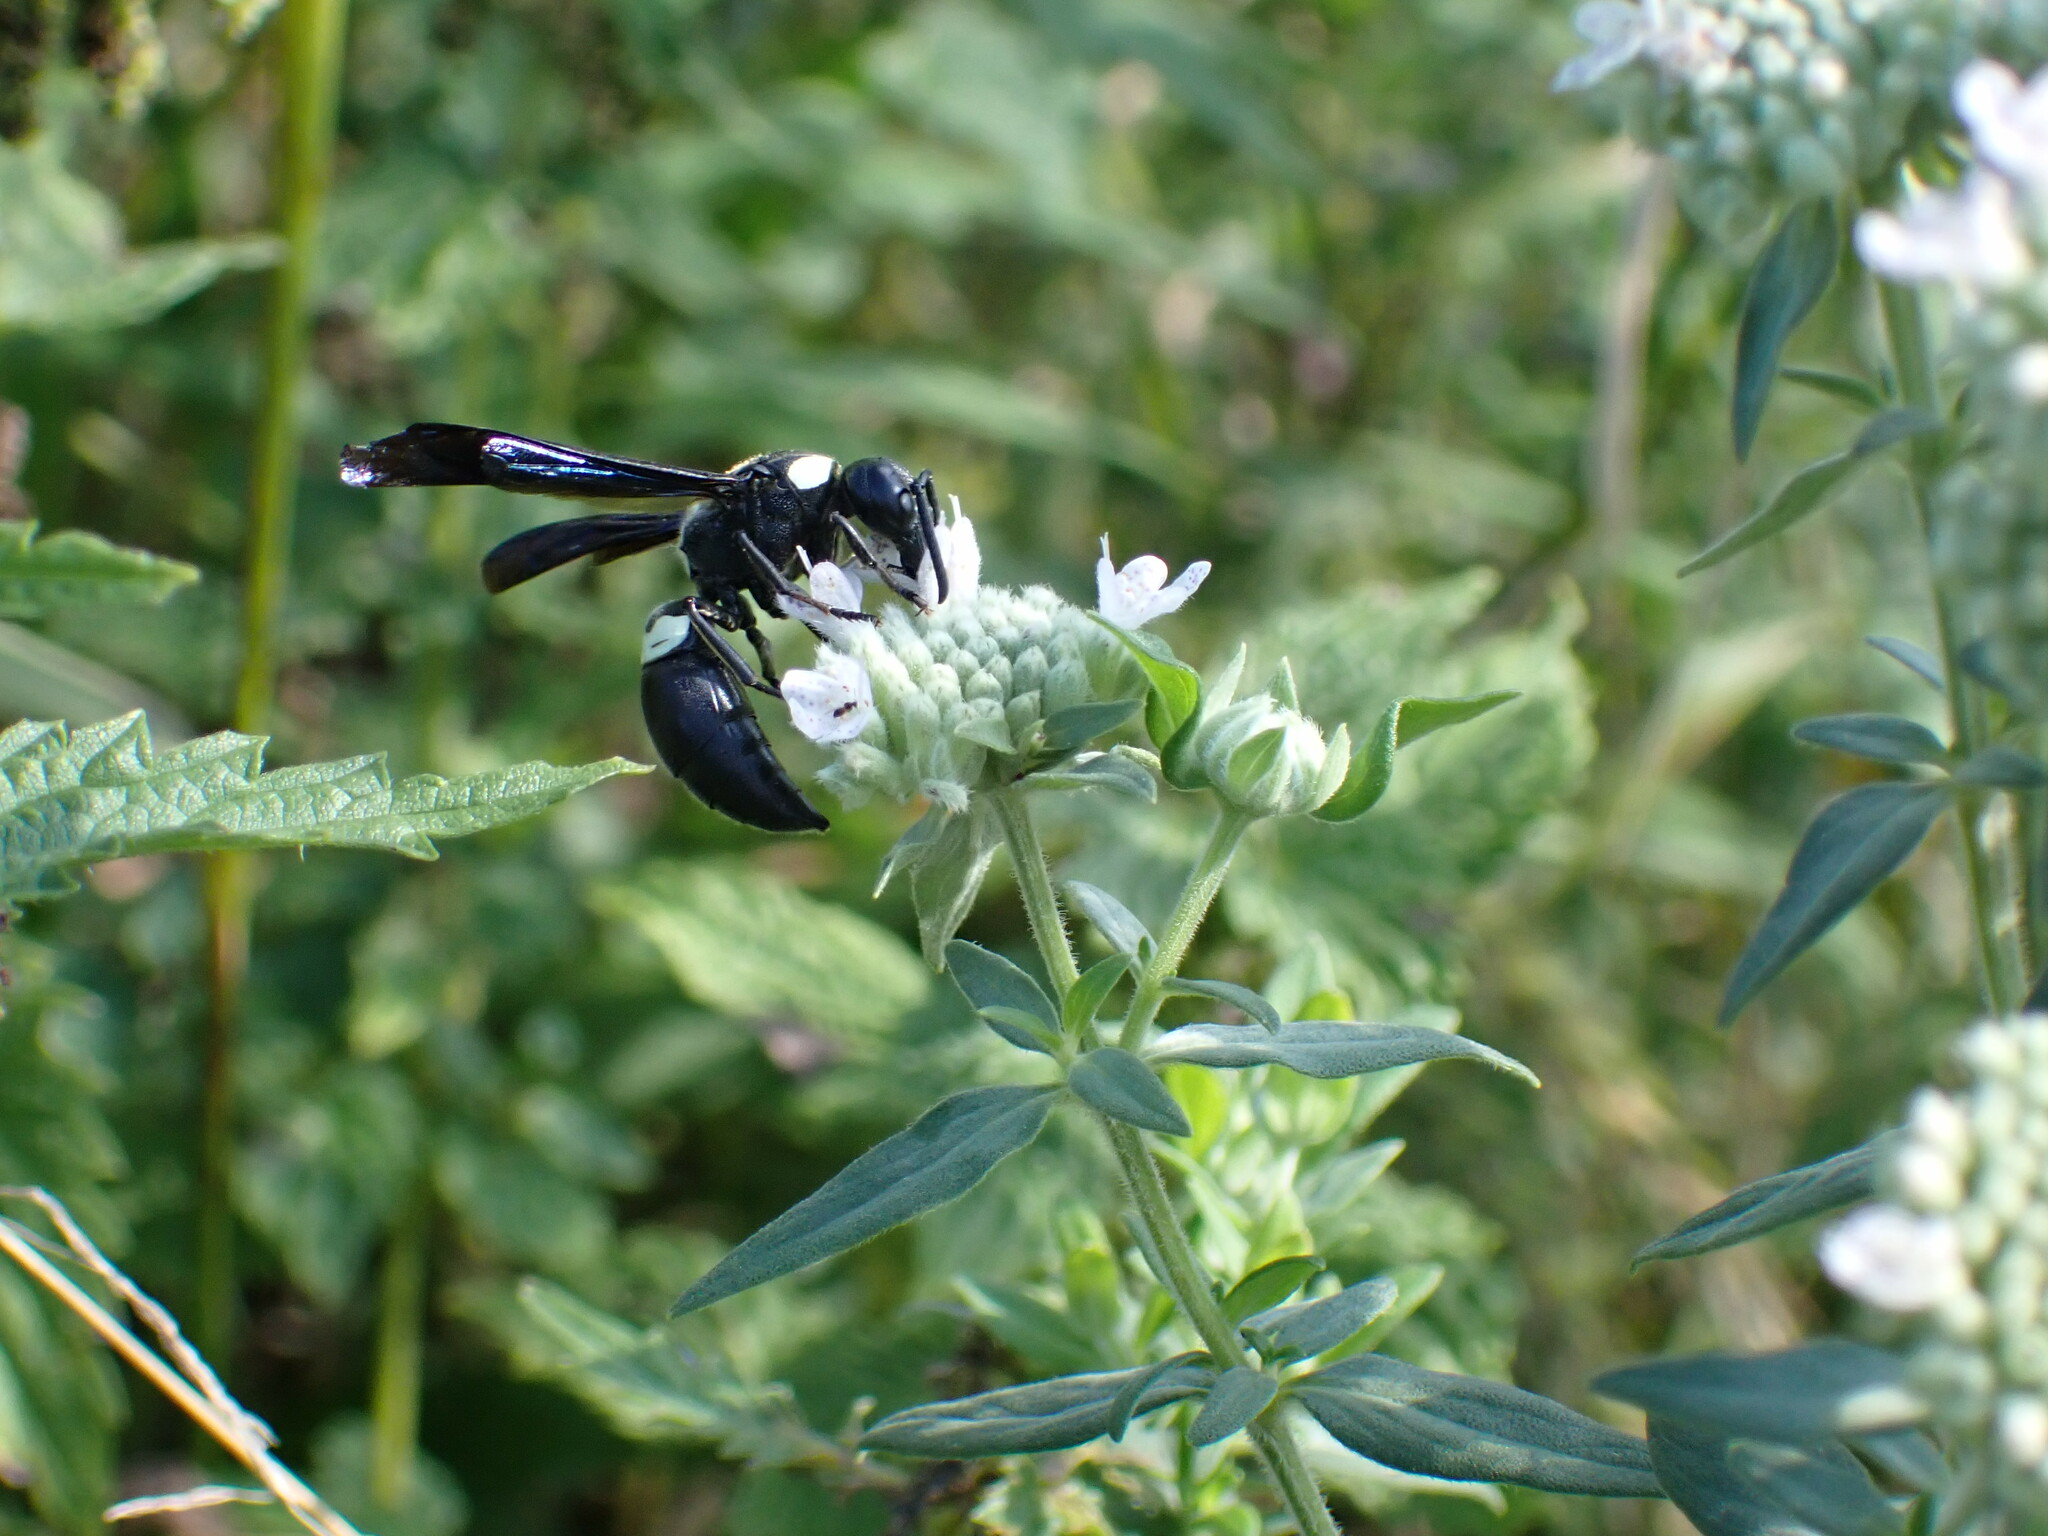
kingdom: Animalia
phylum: Arthropoda
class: Insecta
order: Hymenoptera
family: Eumenidae
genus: Monobia
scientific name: Monobia quadridens
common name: Four-toothed mason wasp
